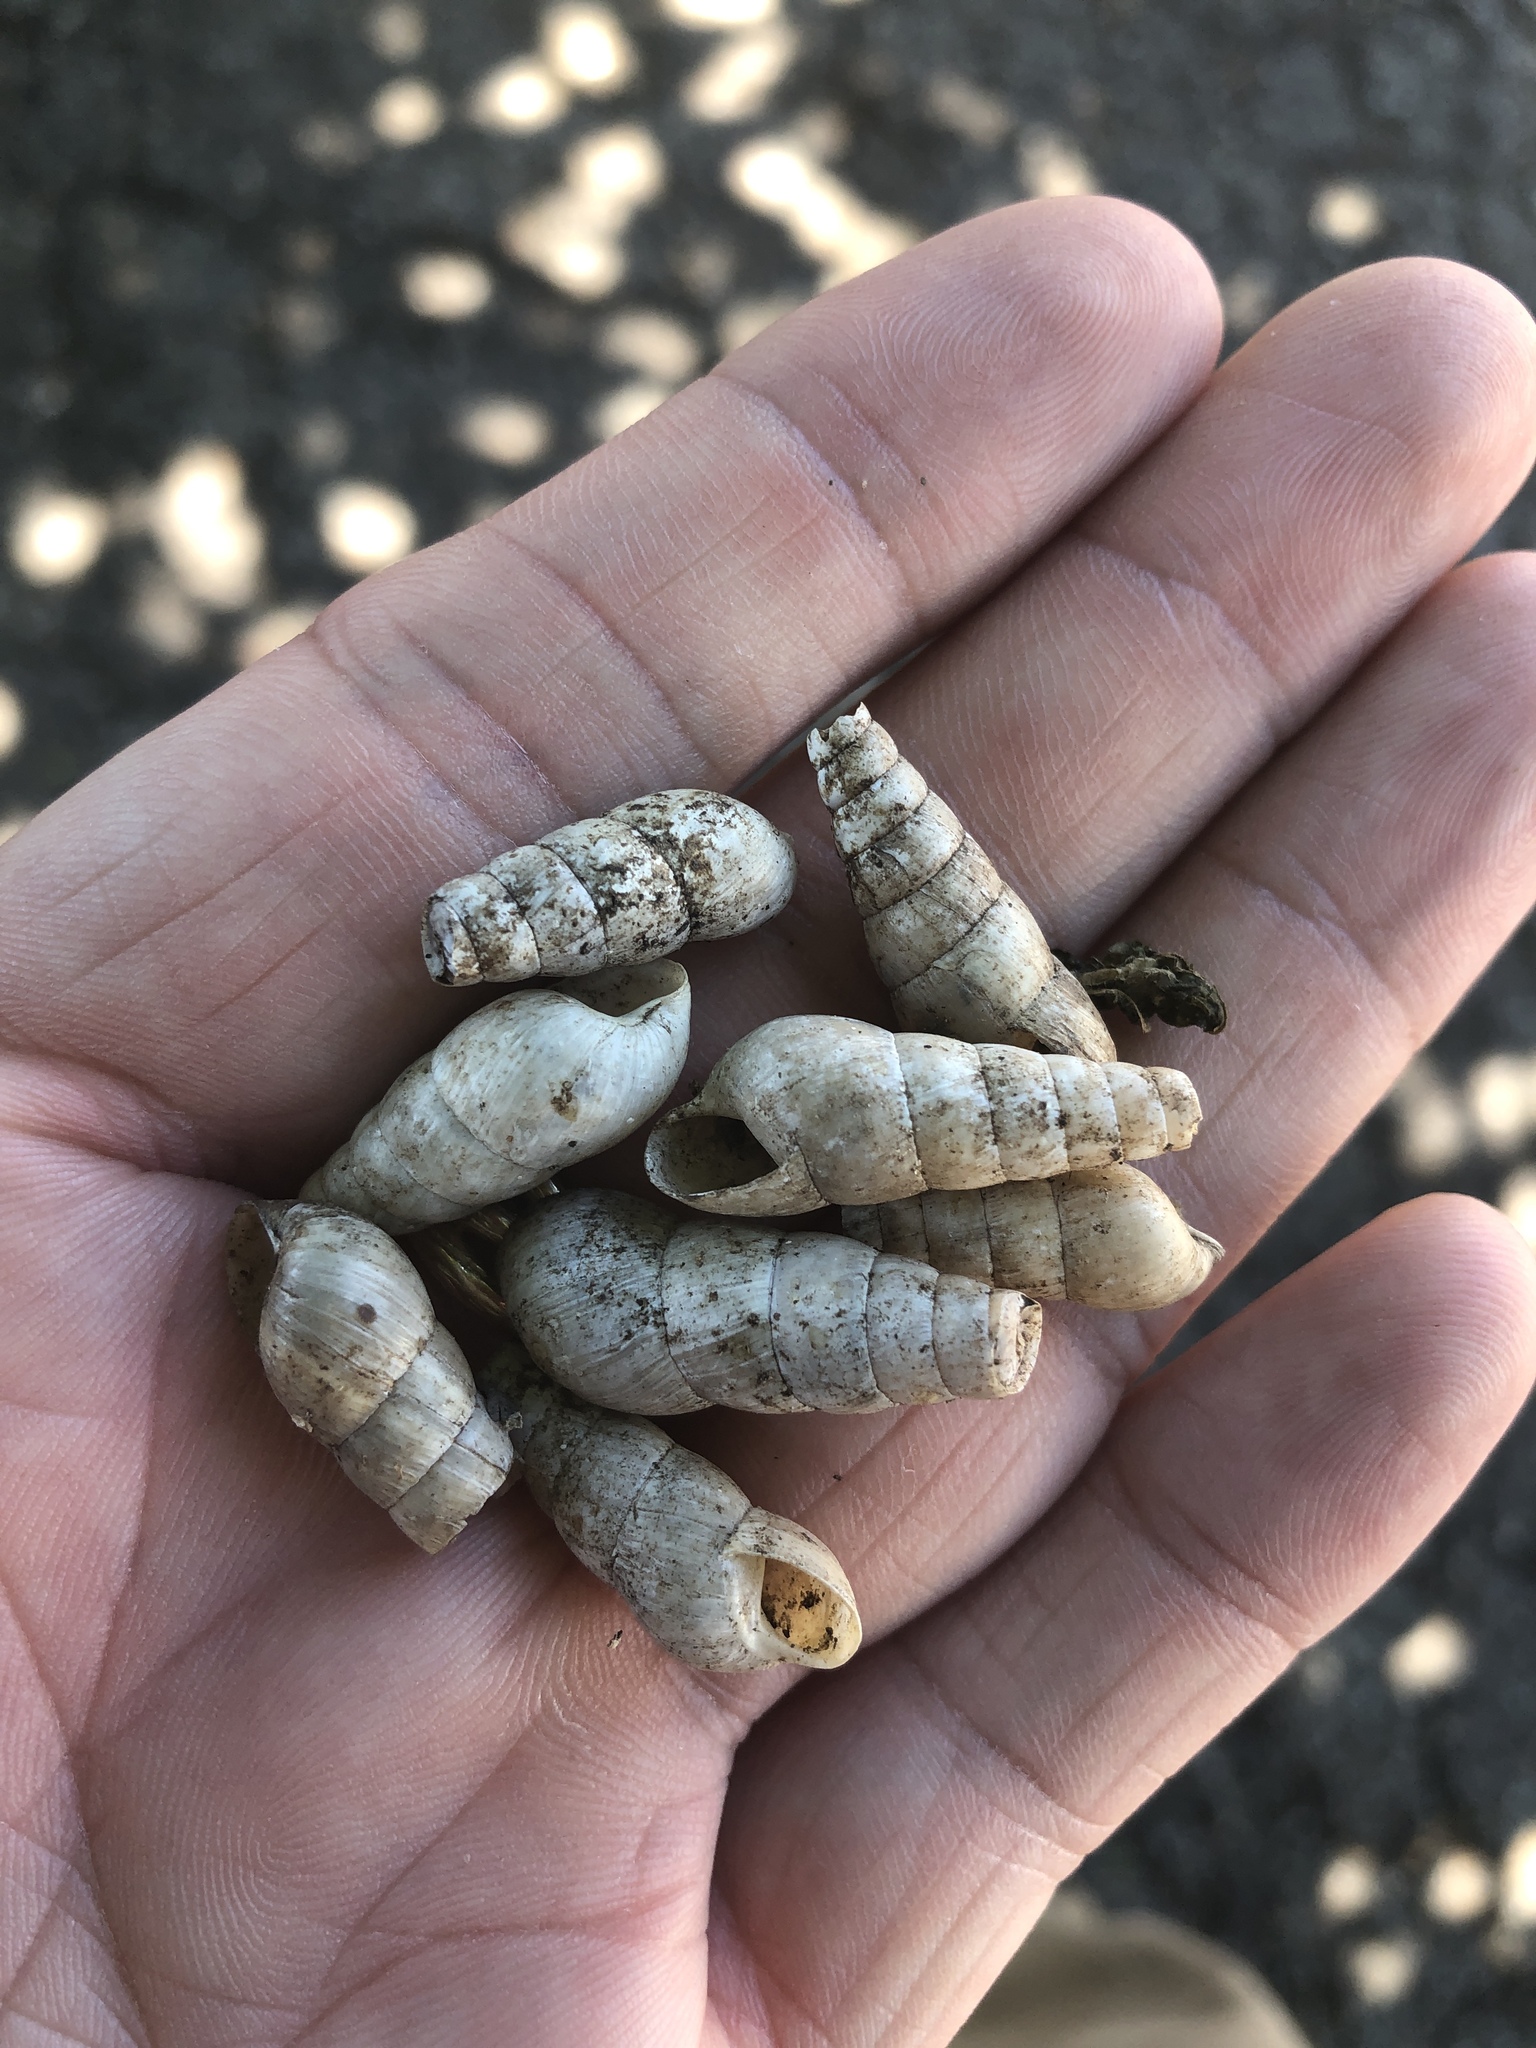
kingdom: Animalia
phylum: Mollusca
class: Gastropoda
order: Stylommatophora
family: Achatinidae
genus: Rumina
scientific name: Rumina decollata
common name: Decollate snail
